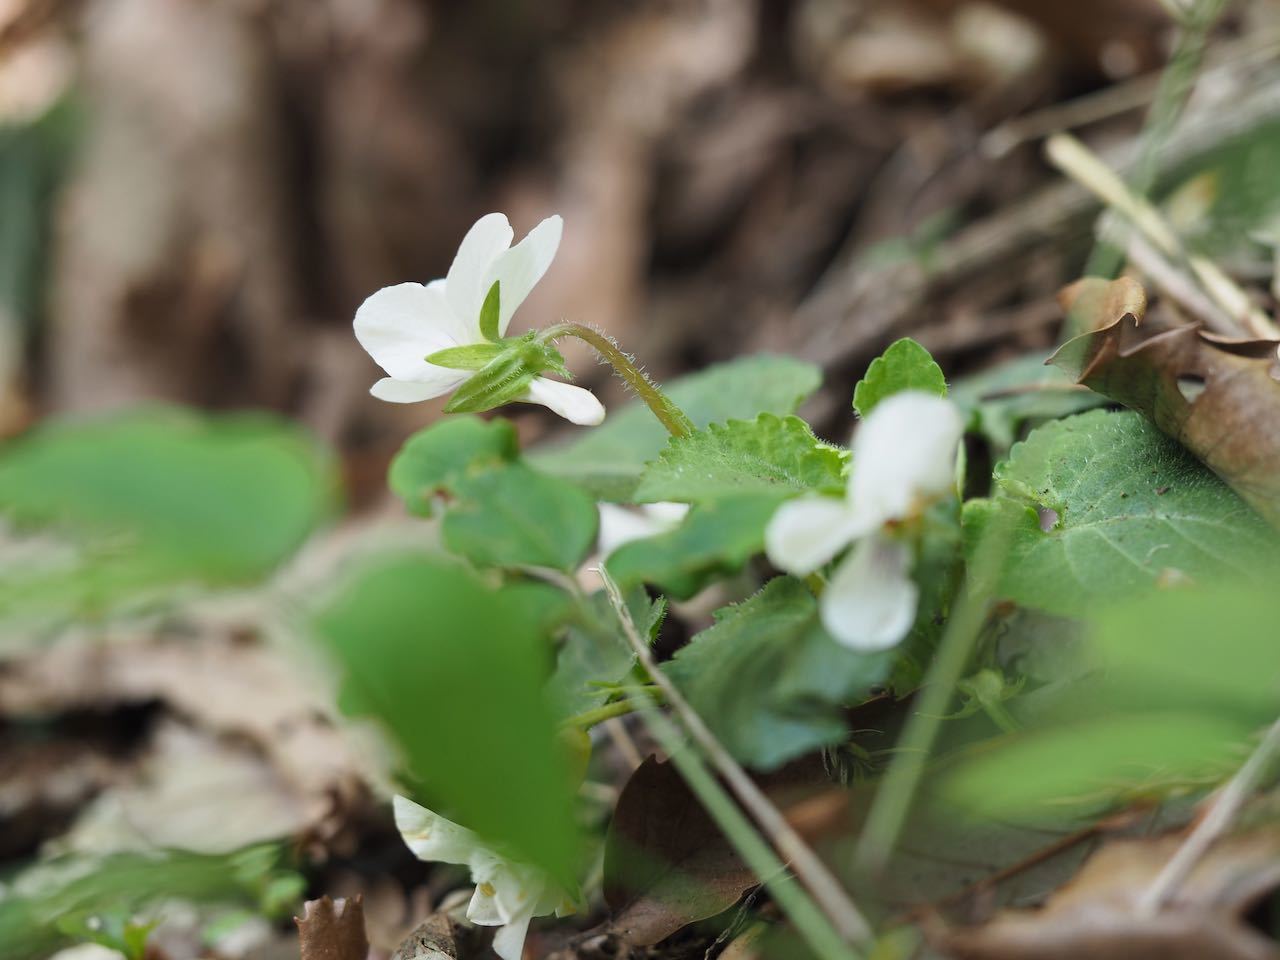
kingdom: Plantae
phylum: Tracheophyta
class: Magnoliopsida
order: Malpighiales
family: Violaceae
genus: Viola
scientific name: Viola keiskei
